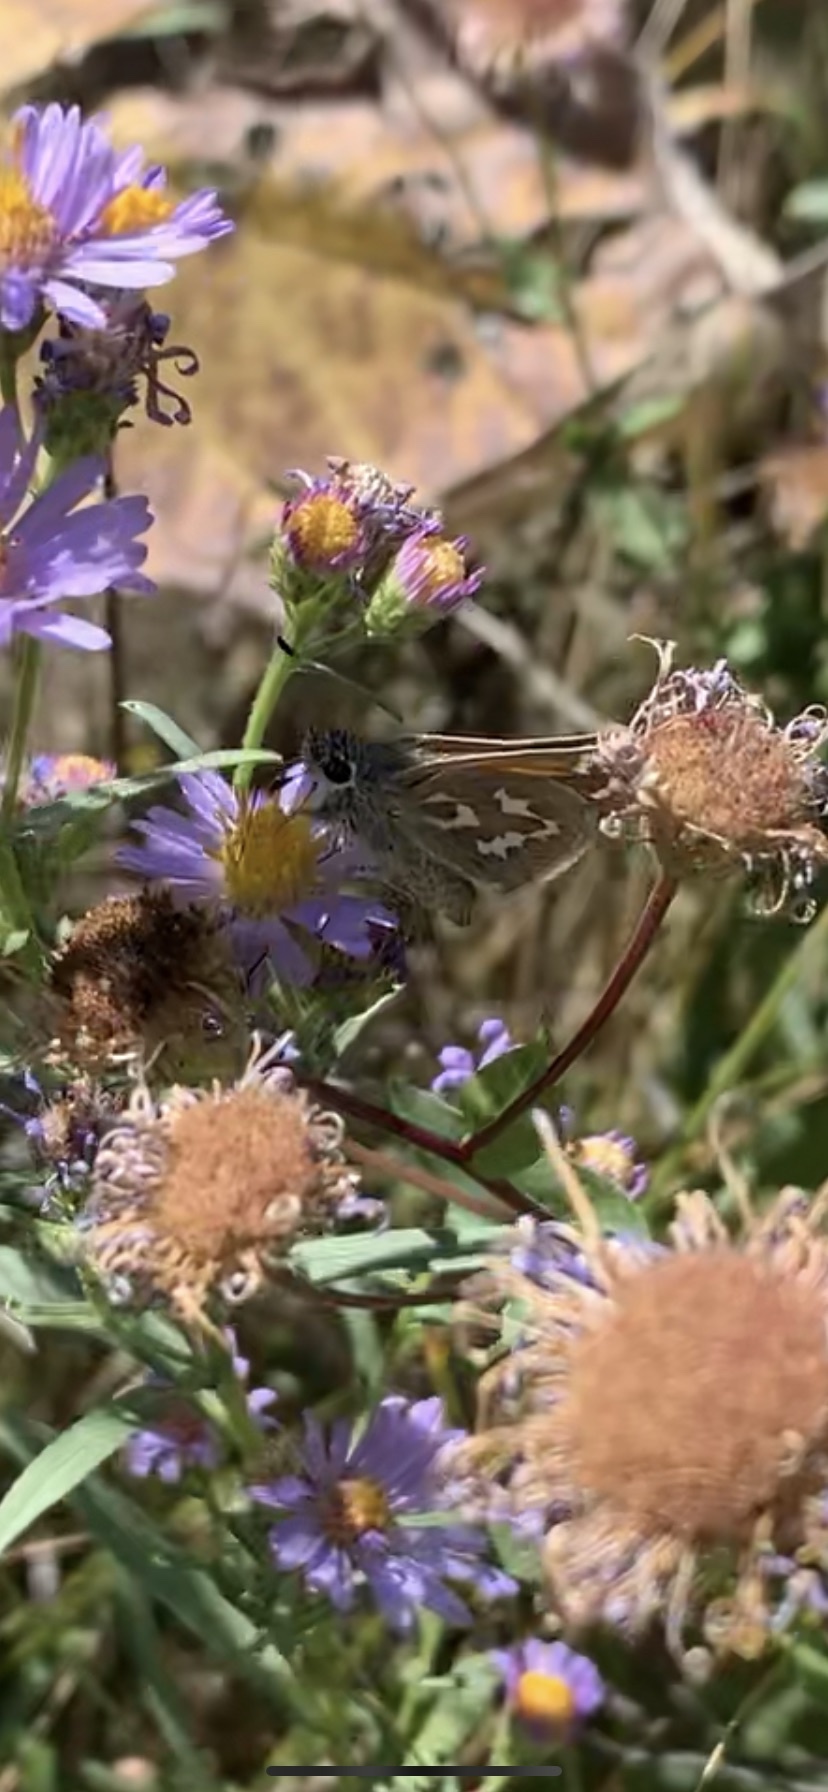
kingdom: Animalia
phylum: Arthropoda
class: Insecta
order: Lepidoptera
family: Hesperiidae
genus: Hesperia
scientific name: Hesperia comma
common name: Common branded skipper
